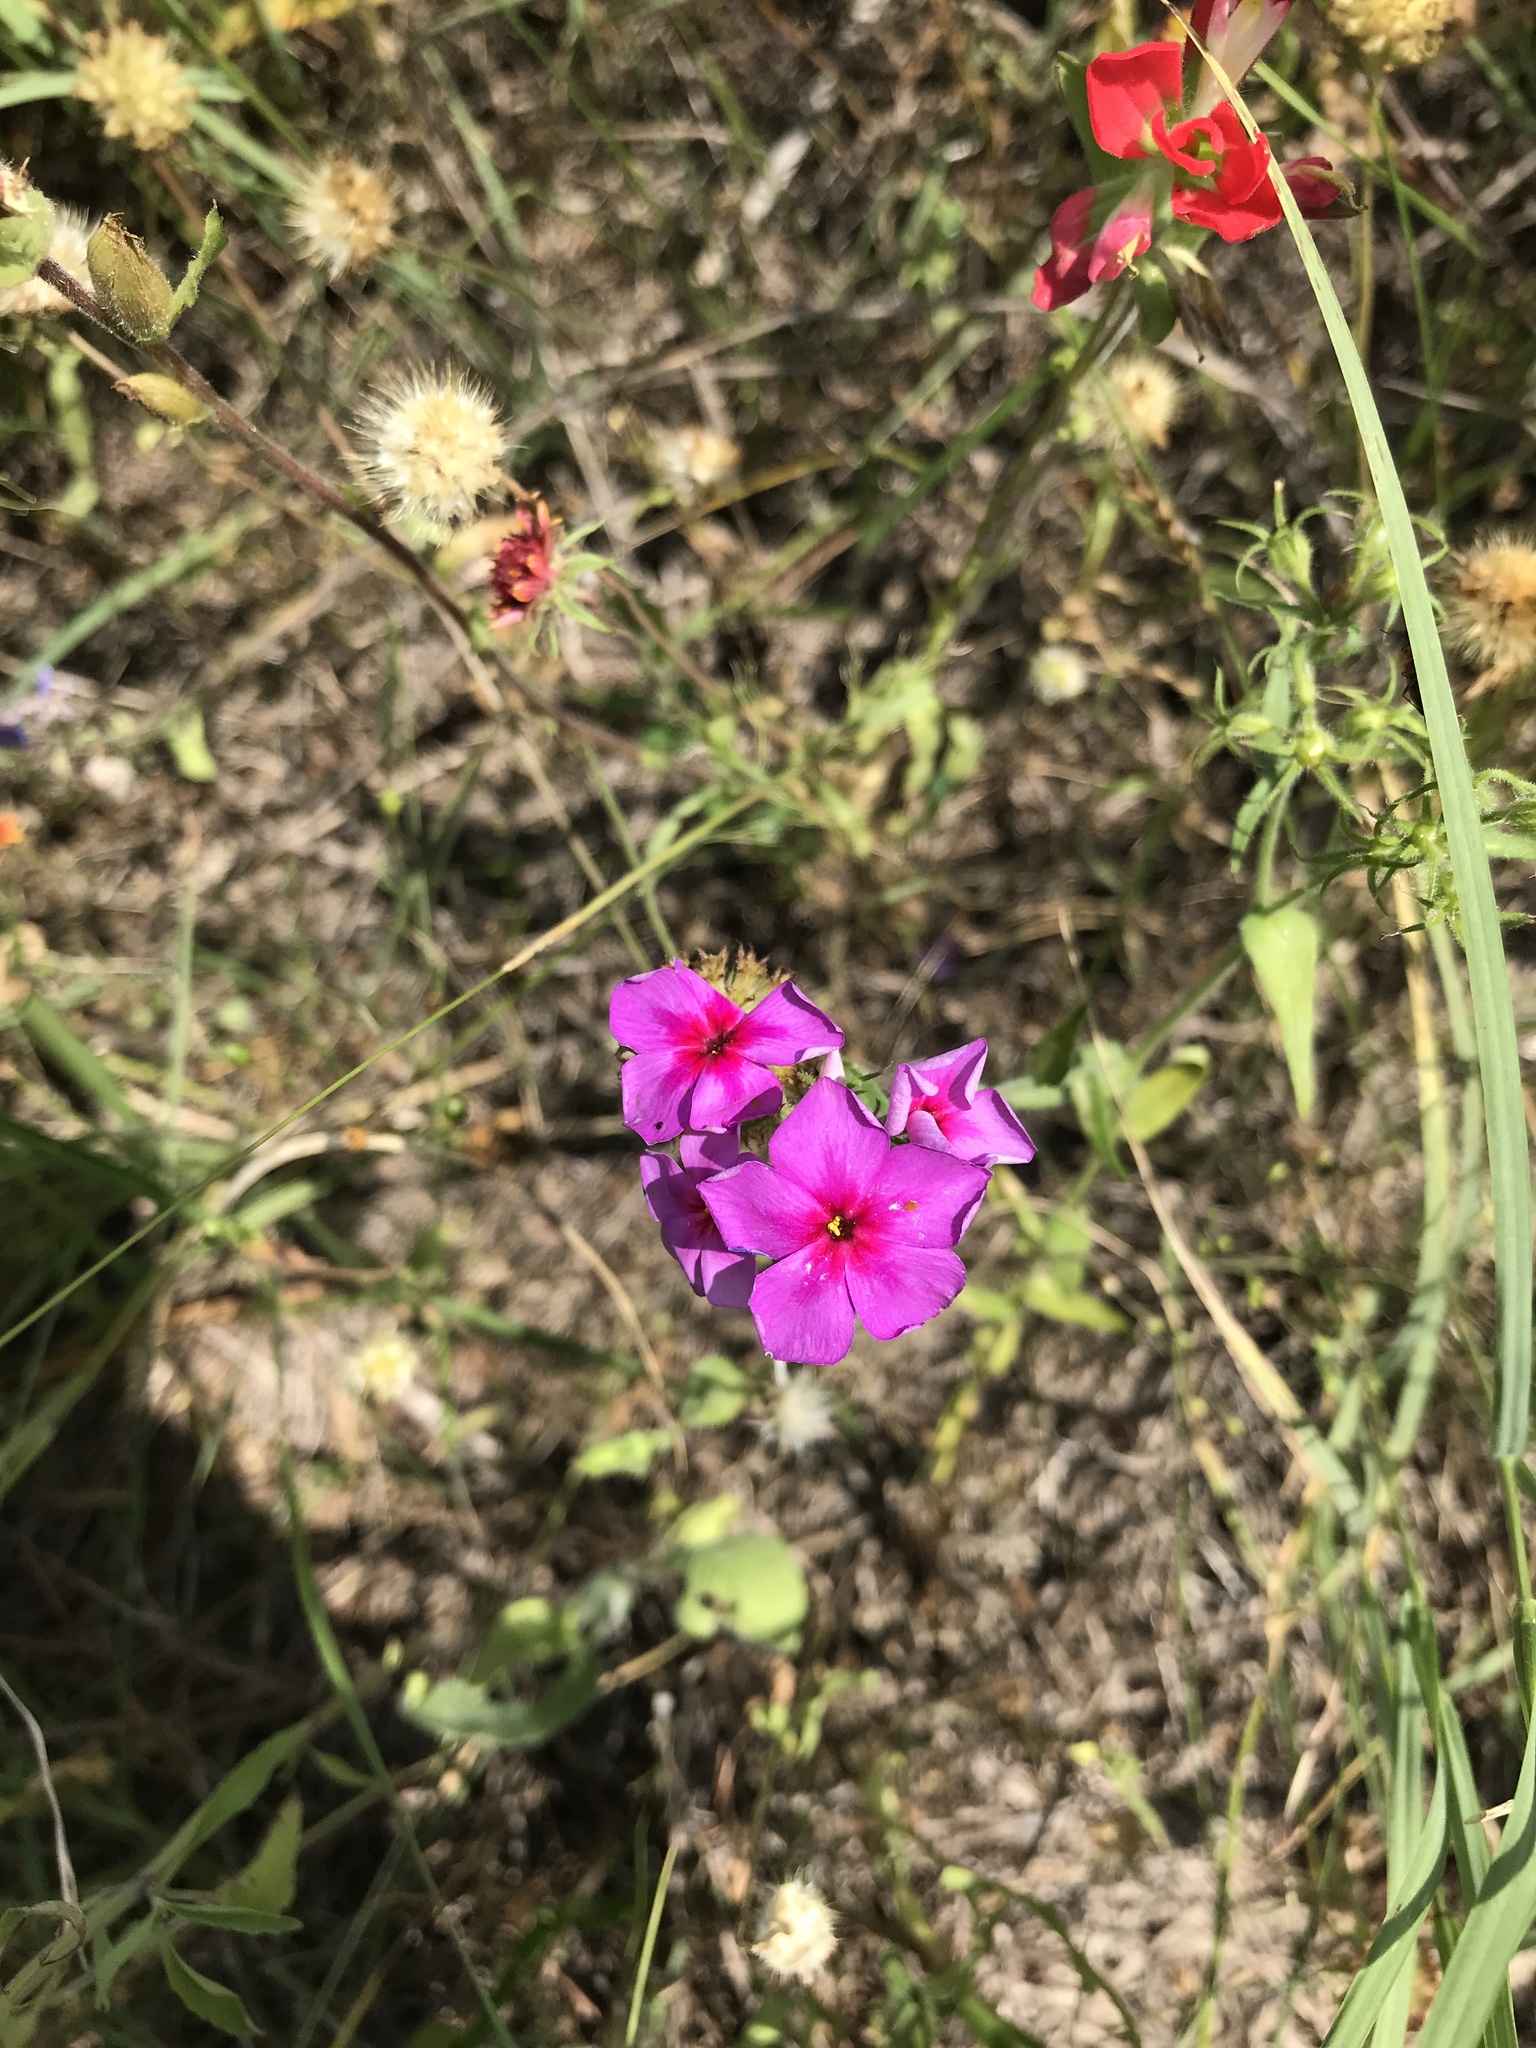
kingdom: Plantae
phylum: Tracheophyta
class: Magnoliopsida
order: Ericales
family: Polemoniaceae
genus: Phlox
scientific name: Phlox drummondii
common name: Drummond's phlox
